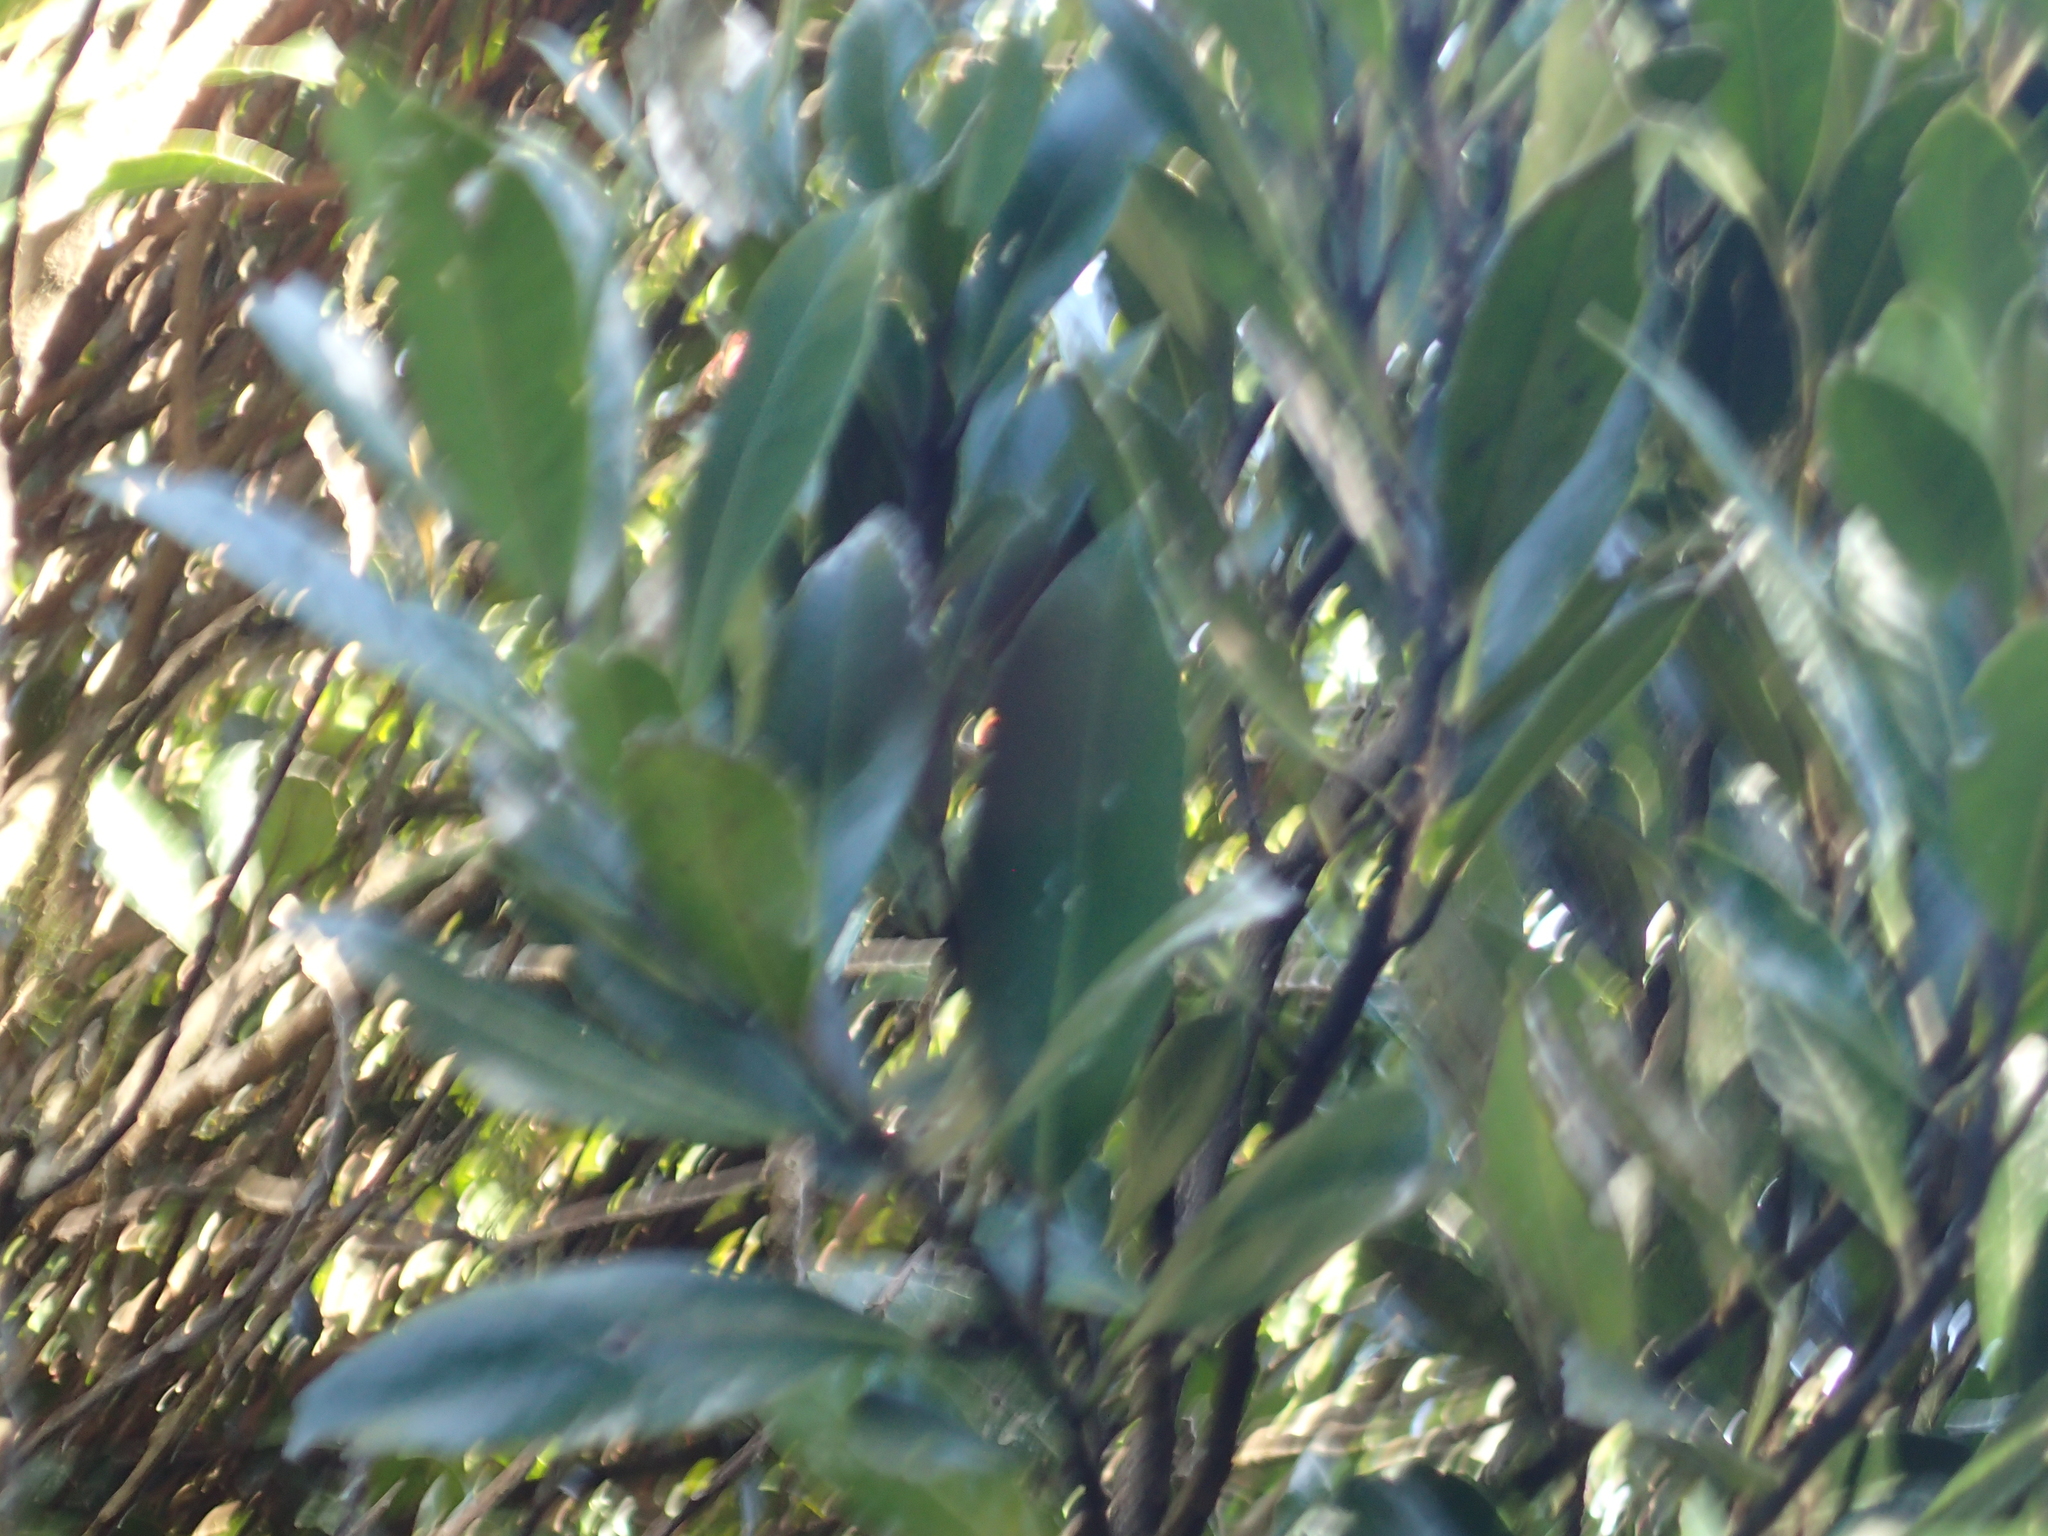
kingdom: Plantae
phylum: Tracheophyta
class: Magnoliopsida
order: Laurales
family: Monimiaceae
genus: Hedycarya
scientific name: Hedycarya arborea
